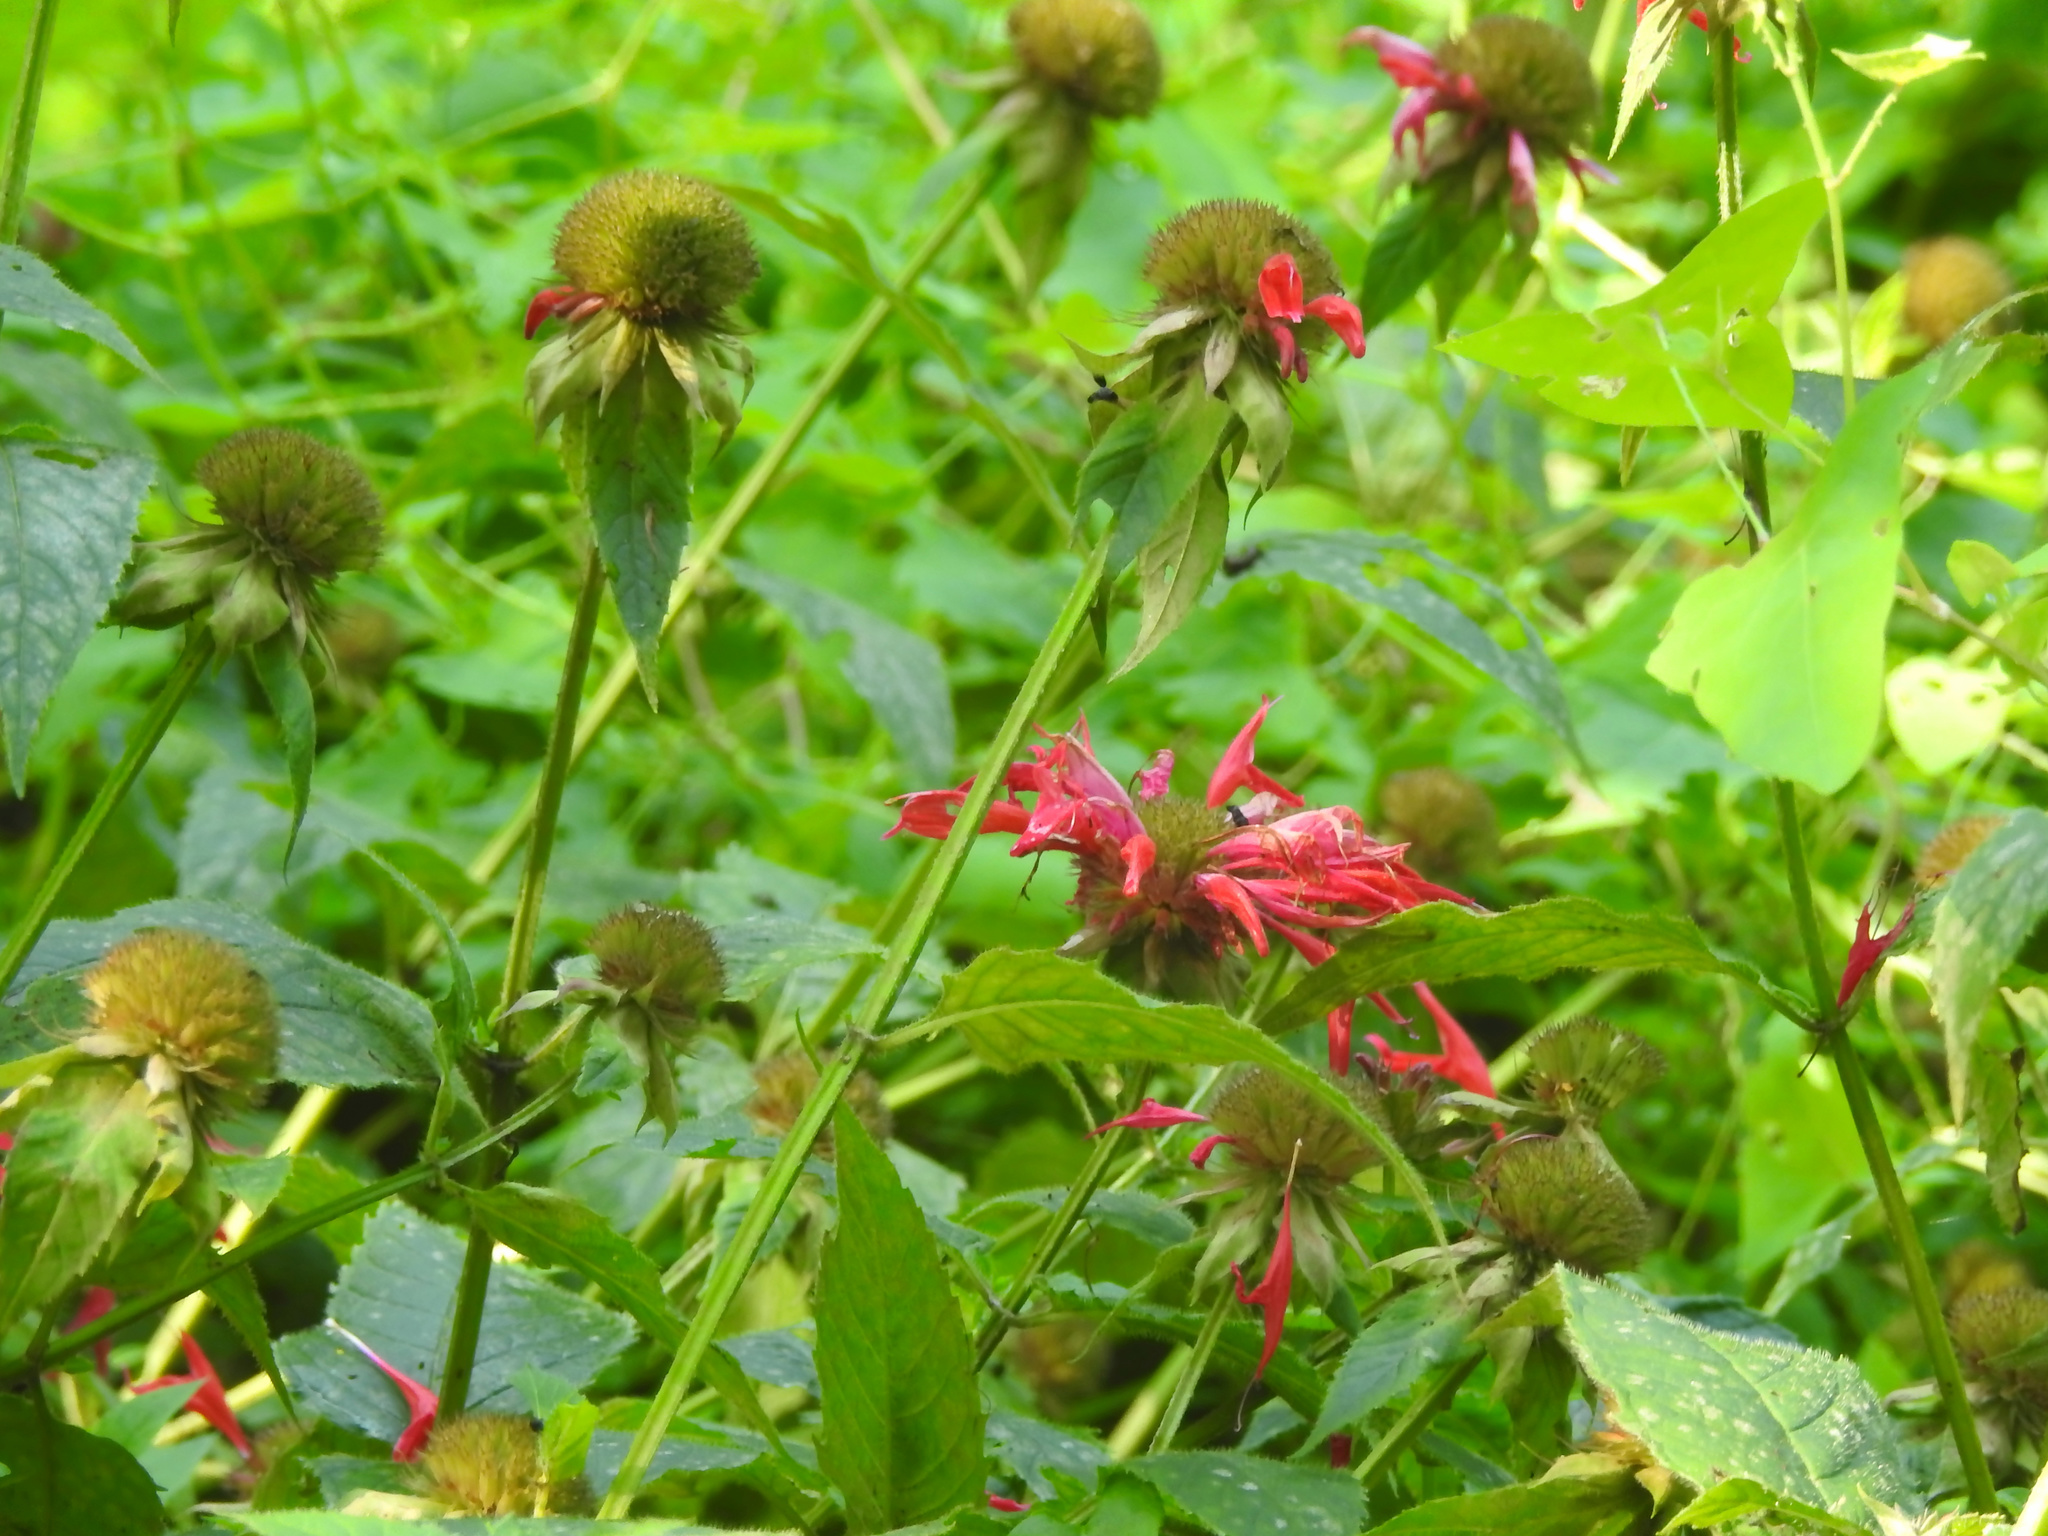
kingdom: Plantae
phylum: Tracheophyta
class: Magnoliopsida
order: Lamiales
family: Lamiaceae
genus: Monarda
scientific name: Monarda didyma
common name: Beebalm
